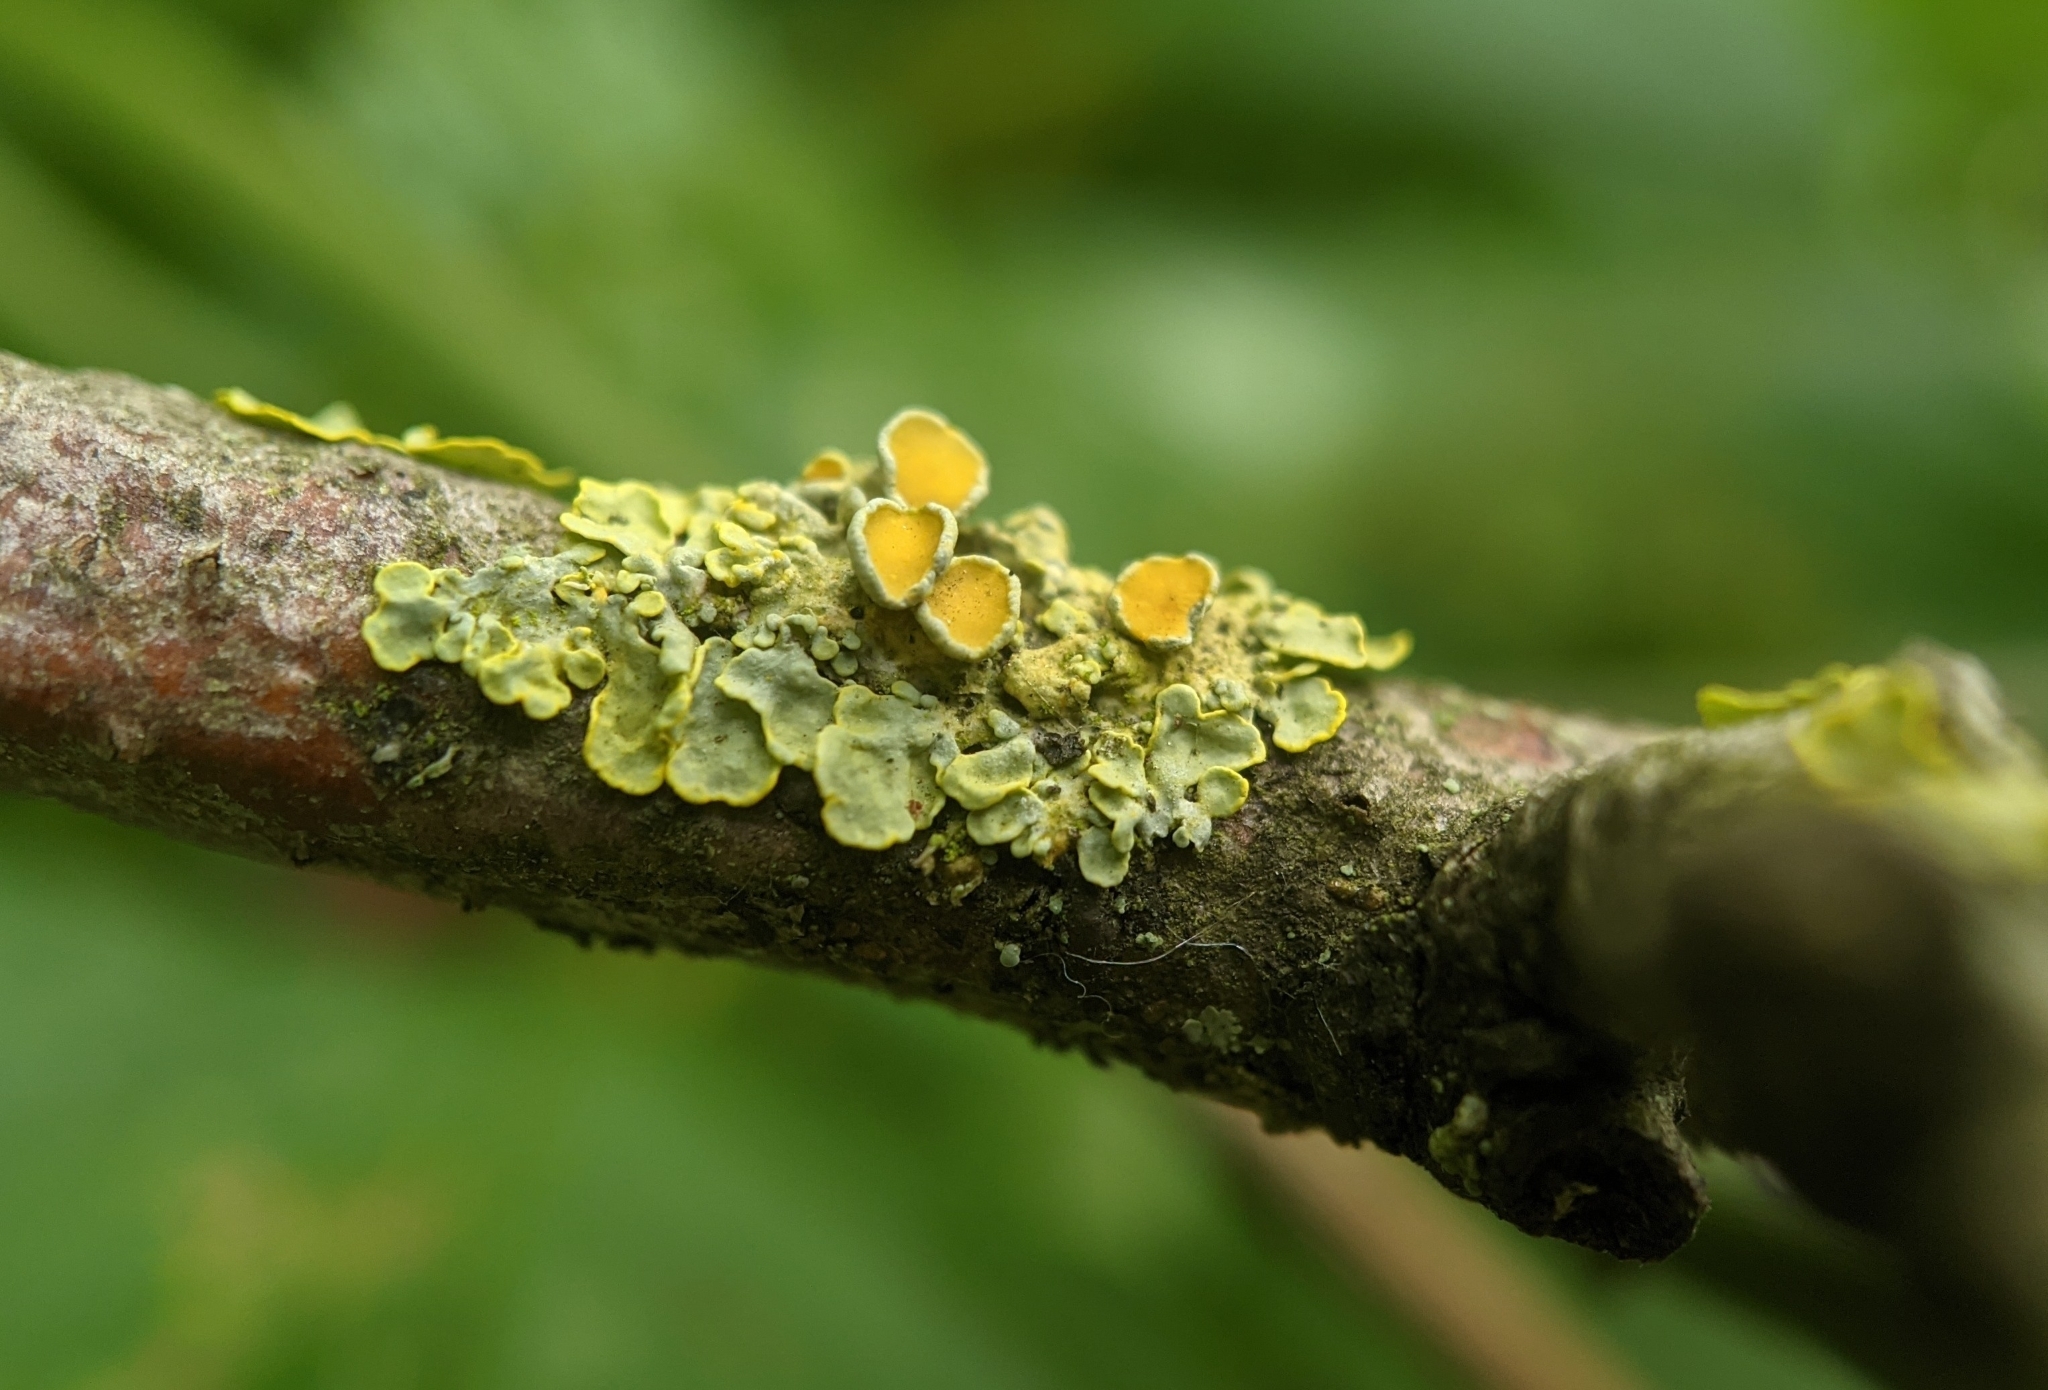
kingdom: Fungi
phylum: Ascomycota
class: Lecanoromycetes
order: Teloschistales
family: Teloschistaceae
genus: Xanthoria
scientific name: Xanthoria parietina
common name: Common orange lichen
